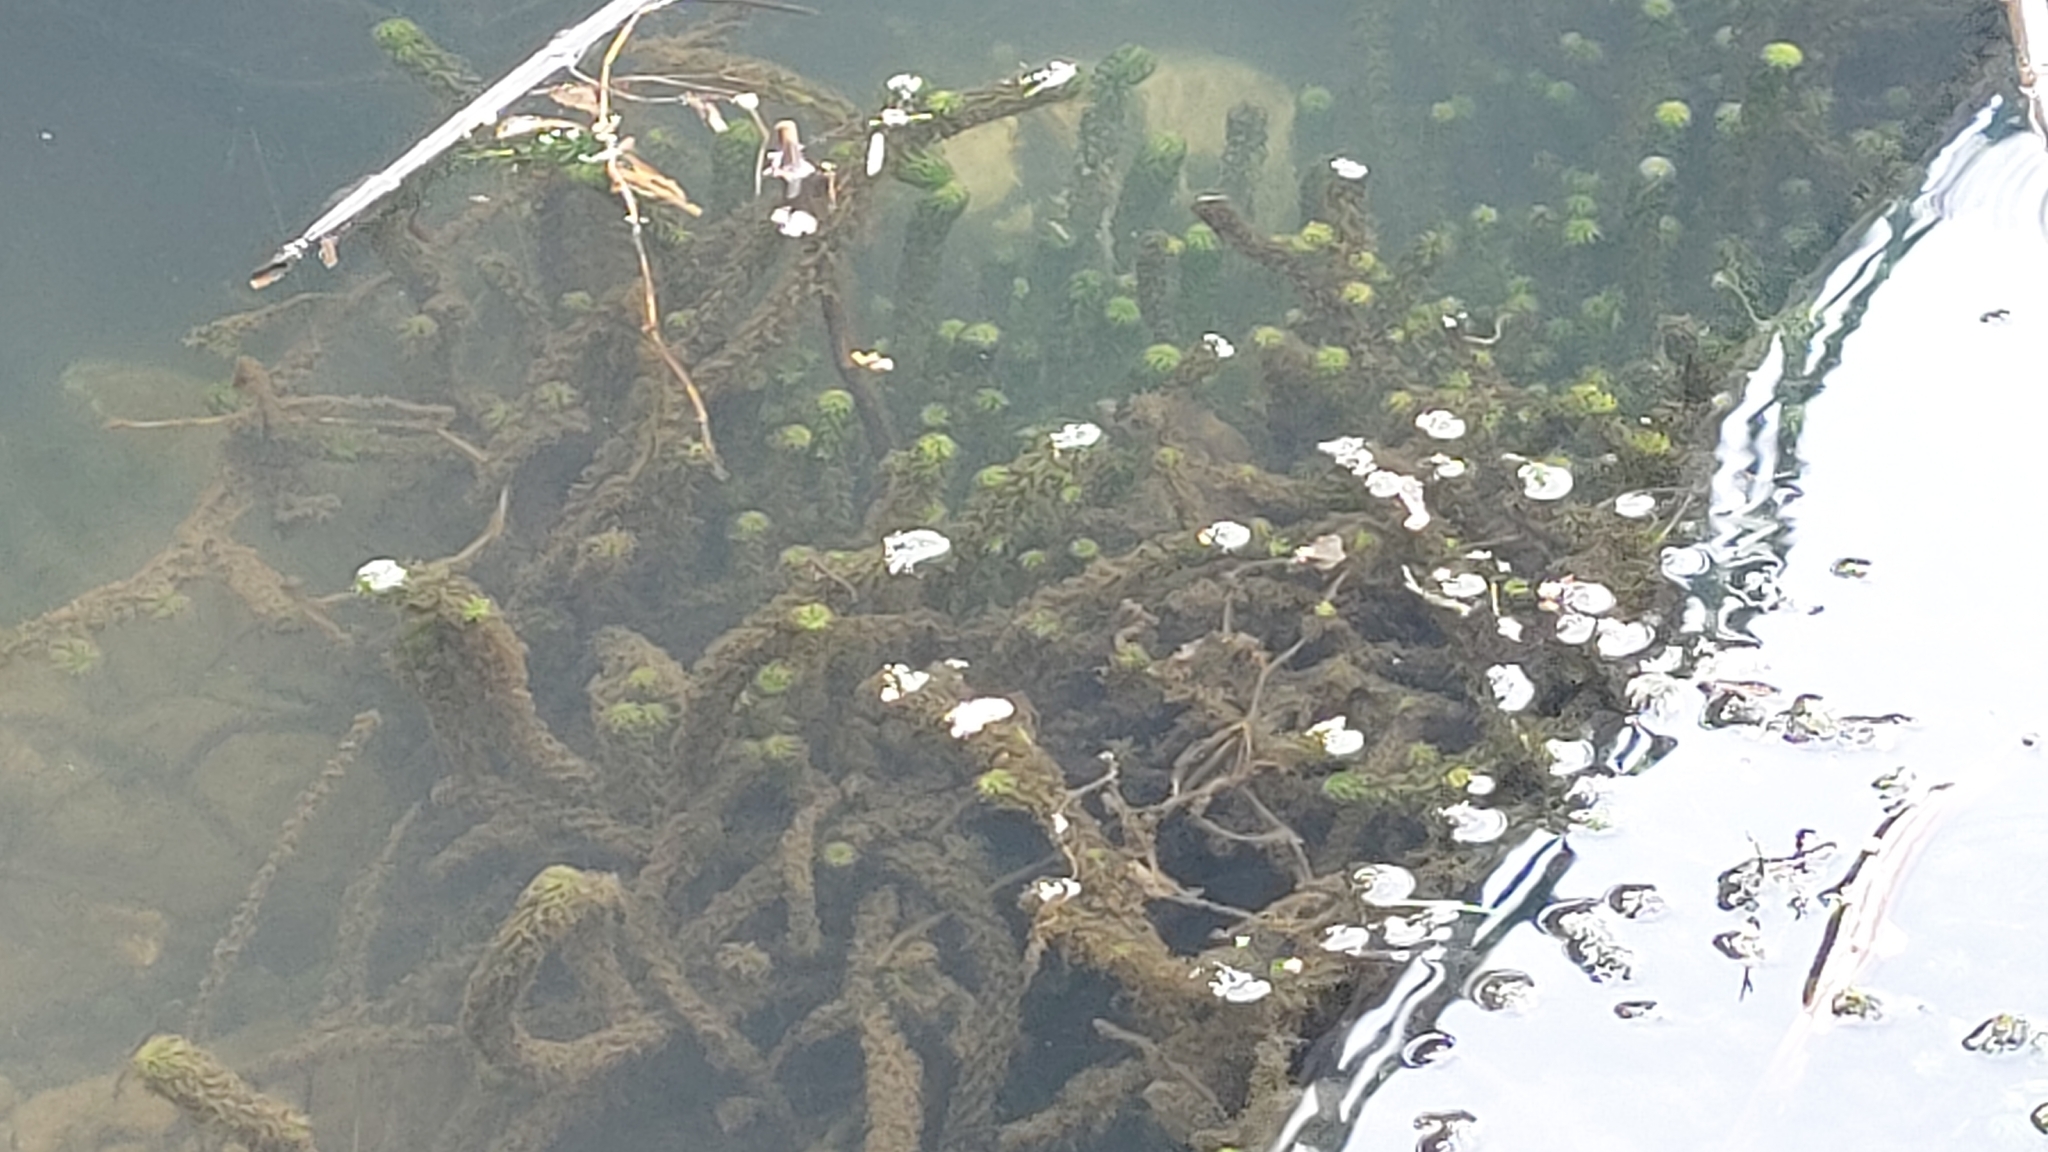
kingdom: Plantae
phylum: Tracheophyta
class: Liliopsida
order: Alismatales
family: Hydrocharitaceae
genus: Lagarosiphon
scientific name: Lagarosiphon major
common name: Curly waterweed
